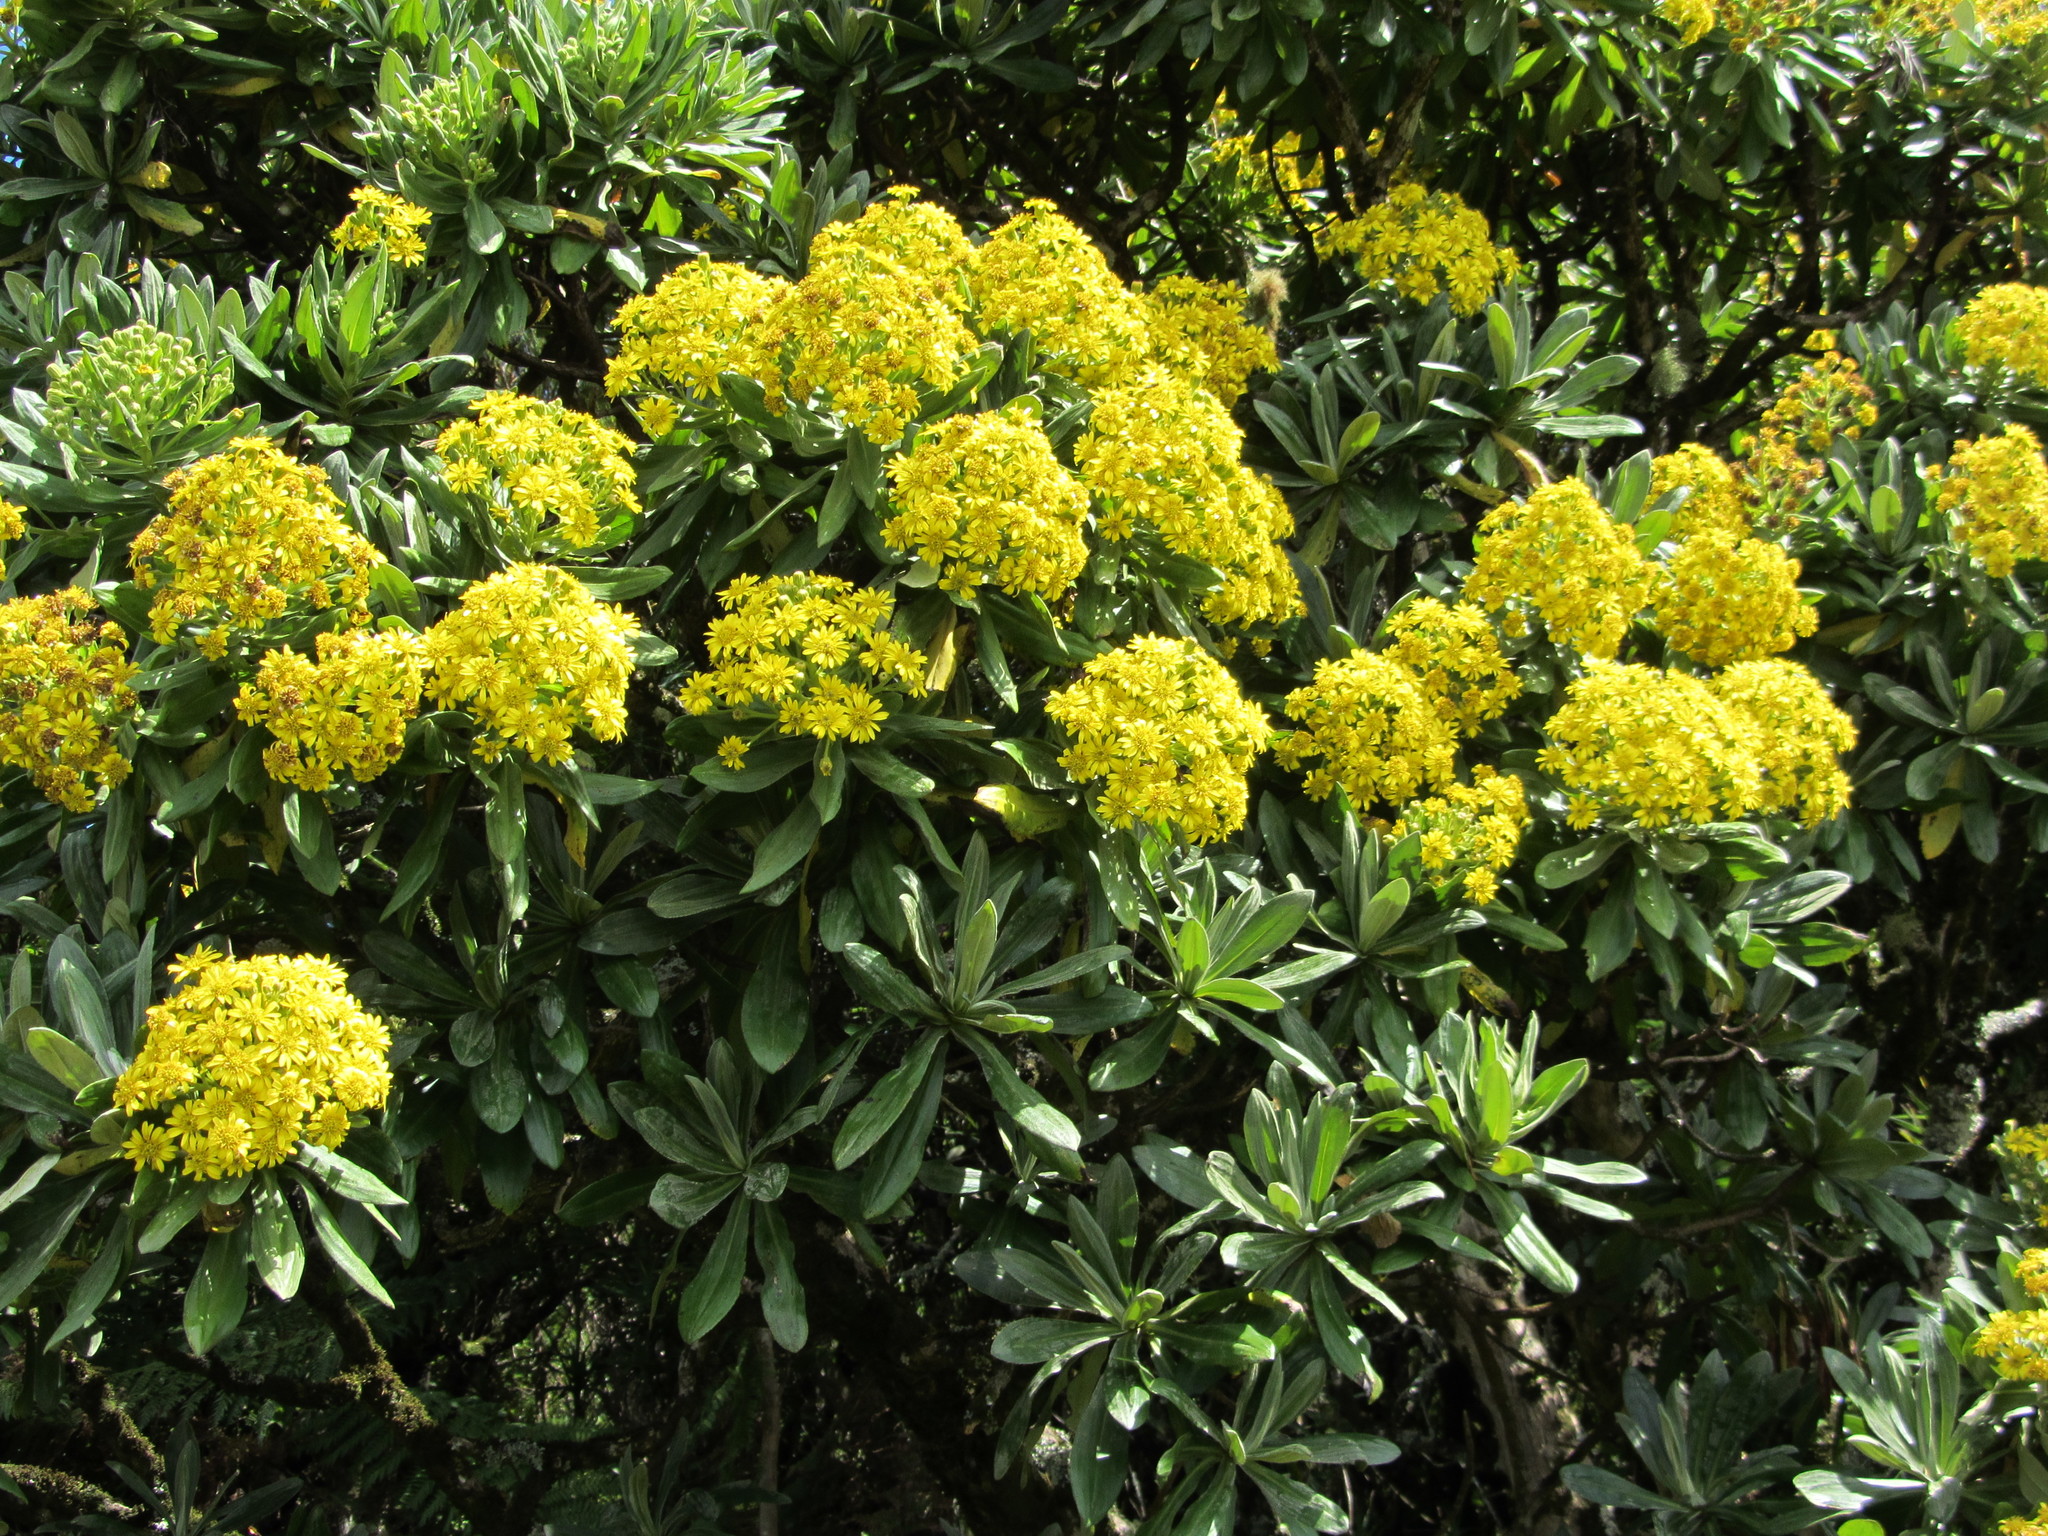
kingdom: Plantae
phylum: Tracheophyta
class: Magnoliopsida
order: Asterales
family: Asteraceae
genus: Brachyglottis
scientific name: Brachyglottis huntii
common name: Chatham island christmas tree
